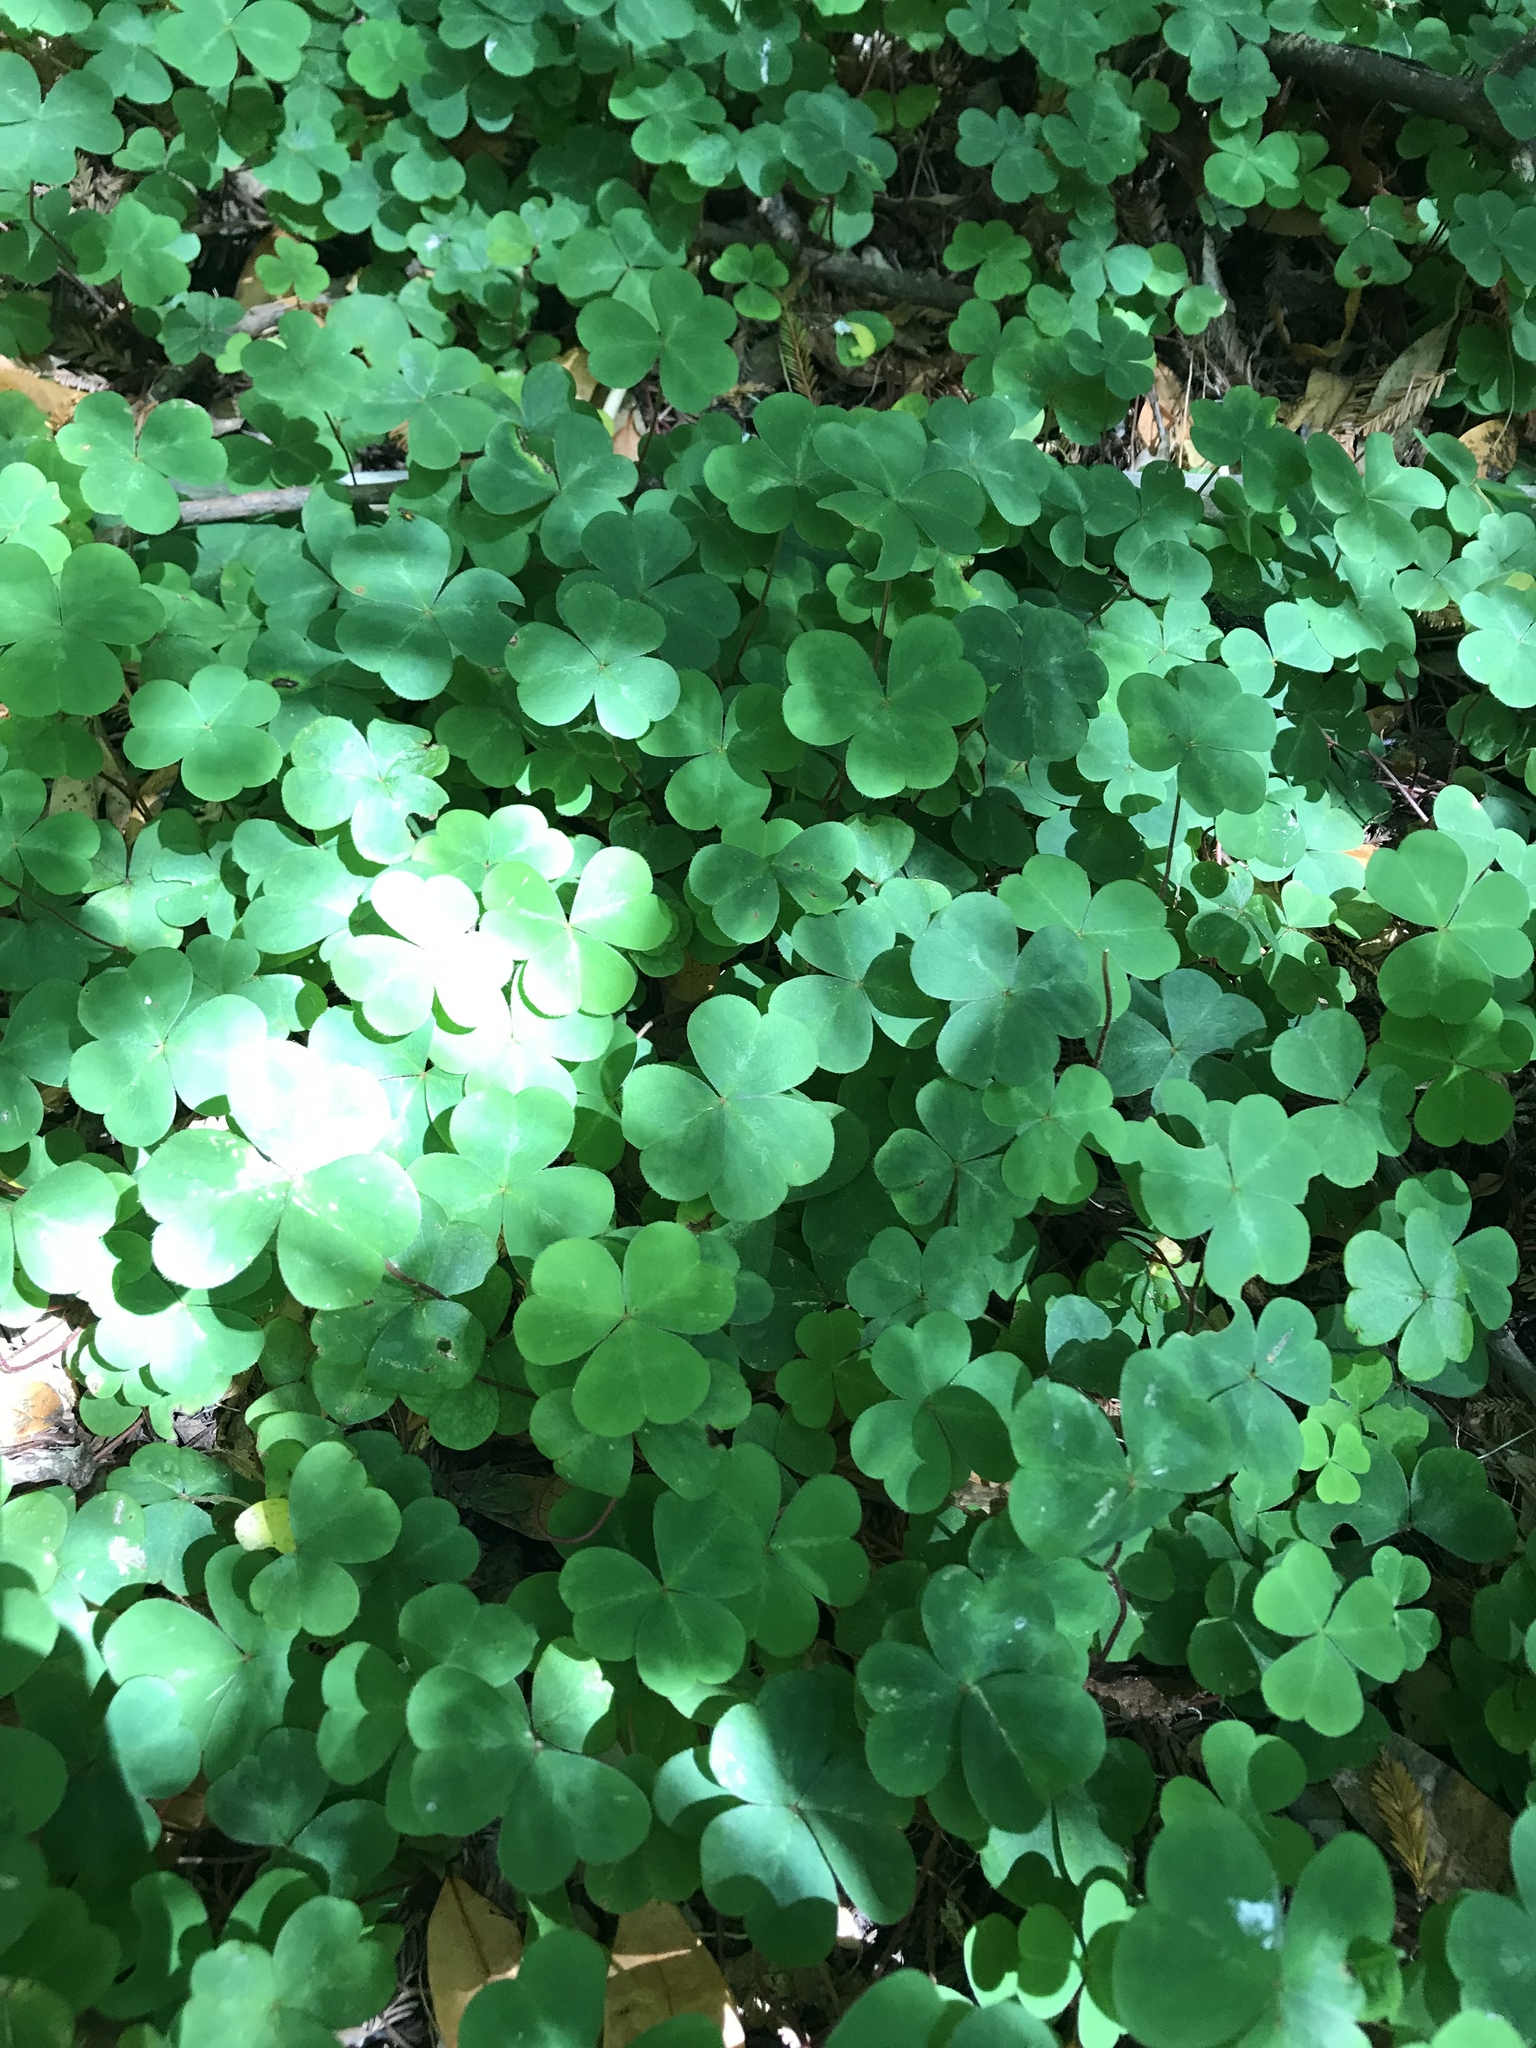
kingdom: Plantae
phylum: Tracheophyta
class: Magnoliopsida
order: Oxalidales
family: Oxalidaceae
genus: Oxalis
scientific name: Oxalis oregana
